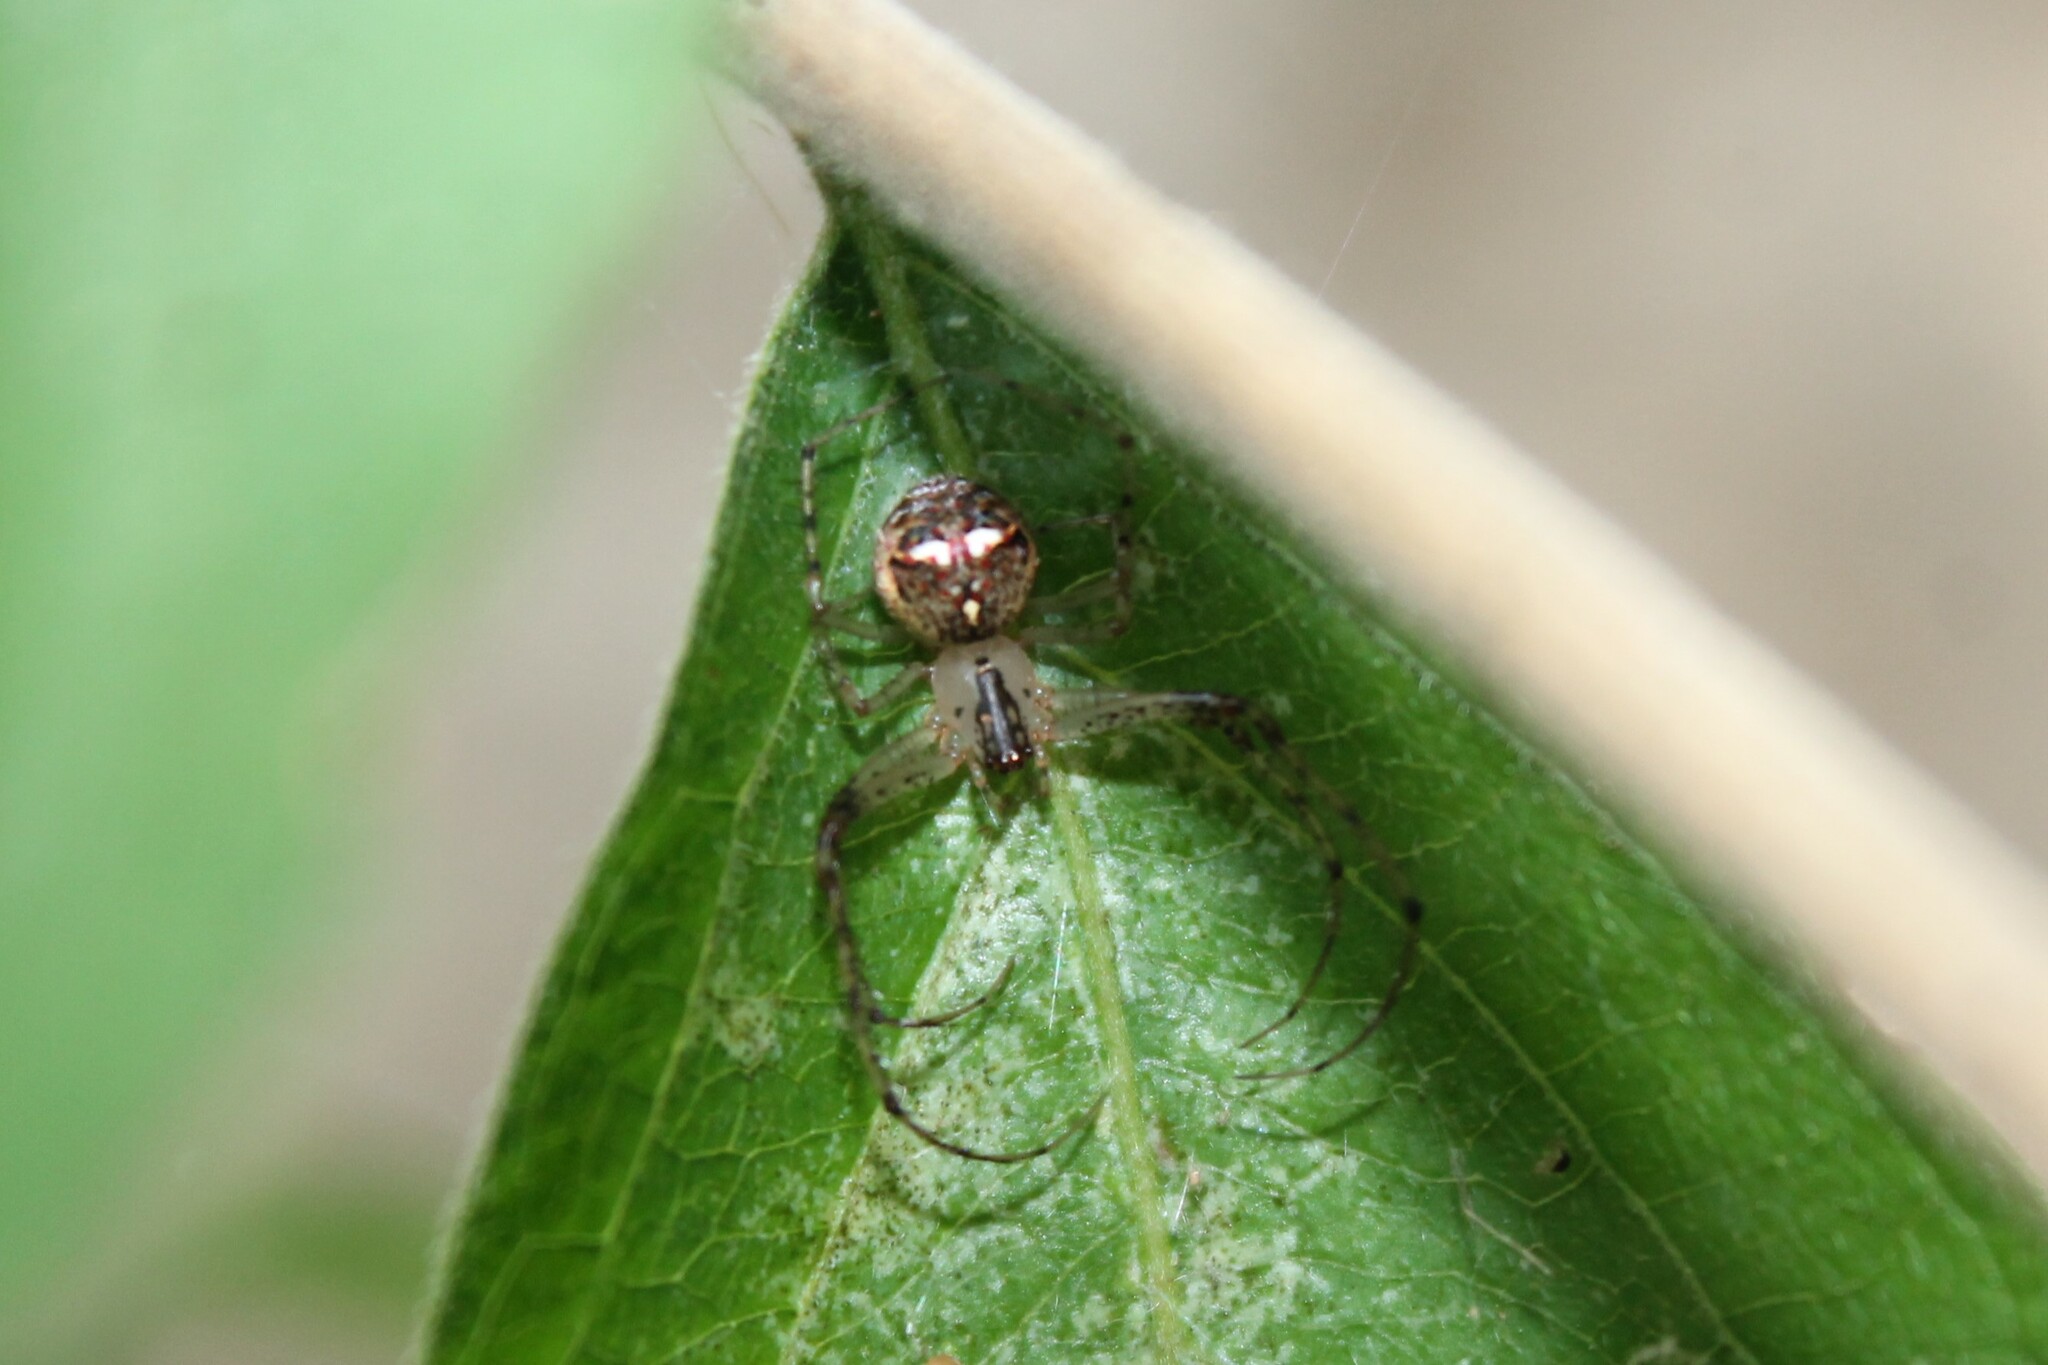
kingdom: Animalia
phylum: Arthropoda
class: Arachnida
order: Araneae
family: Mimetidae
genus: Mimetus
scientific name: Mimetus puritanus
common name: Common pirate spider
